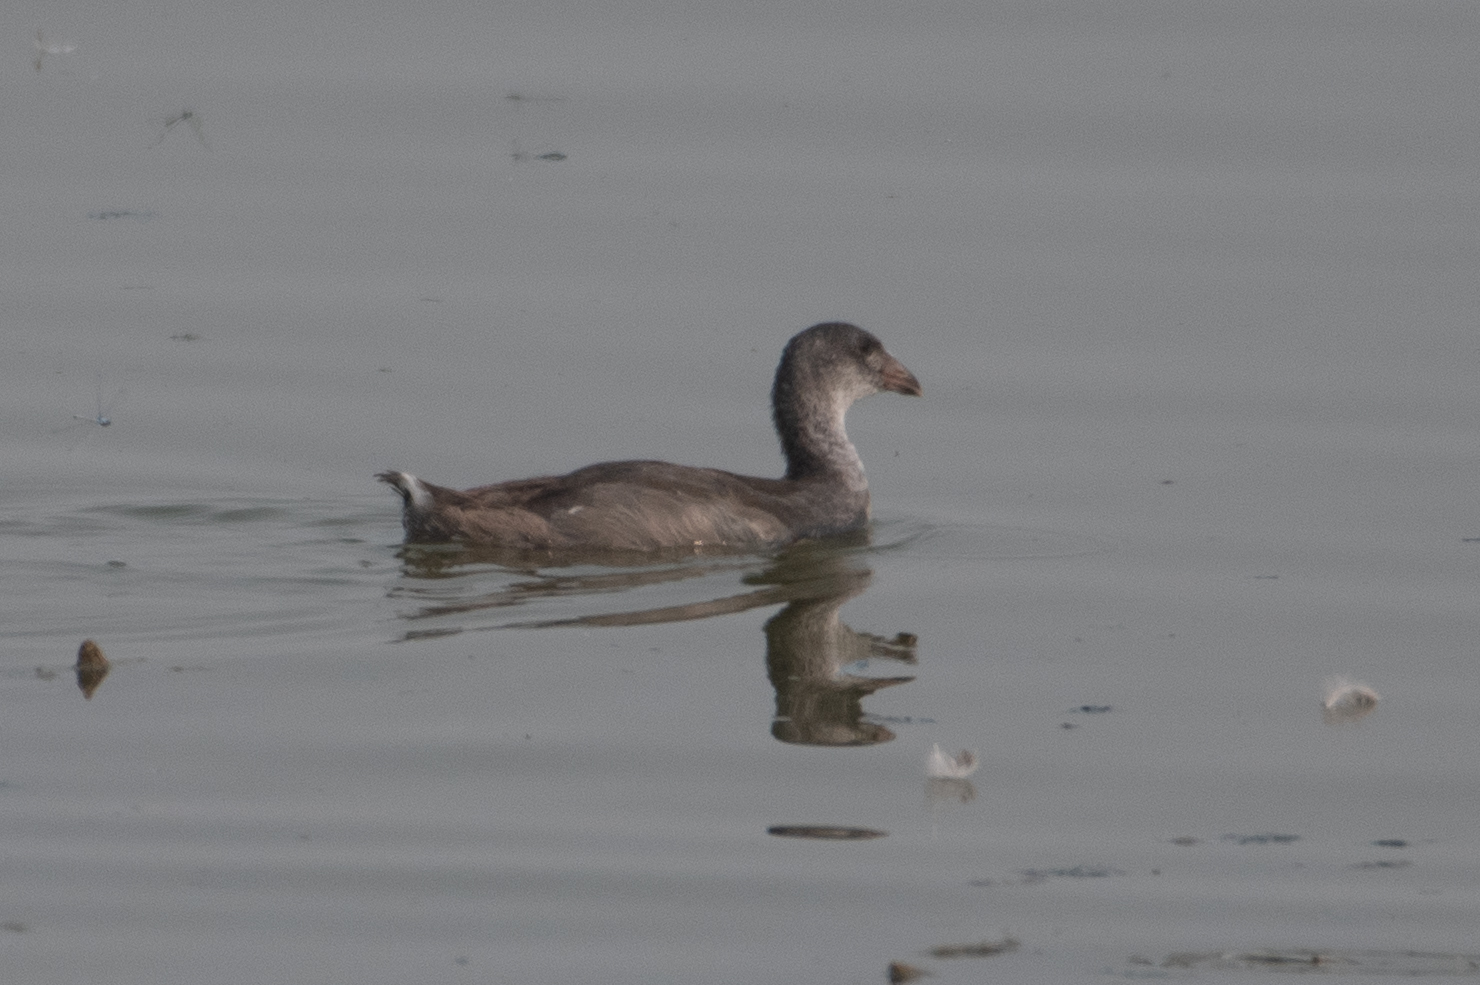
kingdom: Animalia
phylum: Chordata
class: Aves
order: Gruiformes
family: Rallidae
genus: Fulica
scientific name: Fulica americana
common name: American coot
